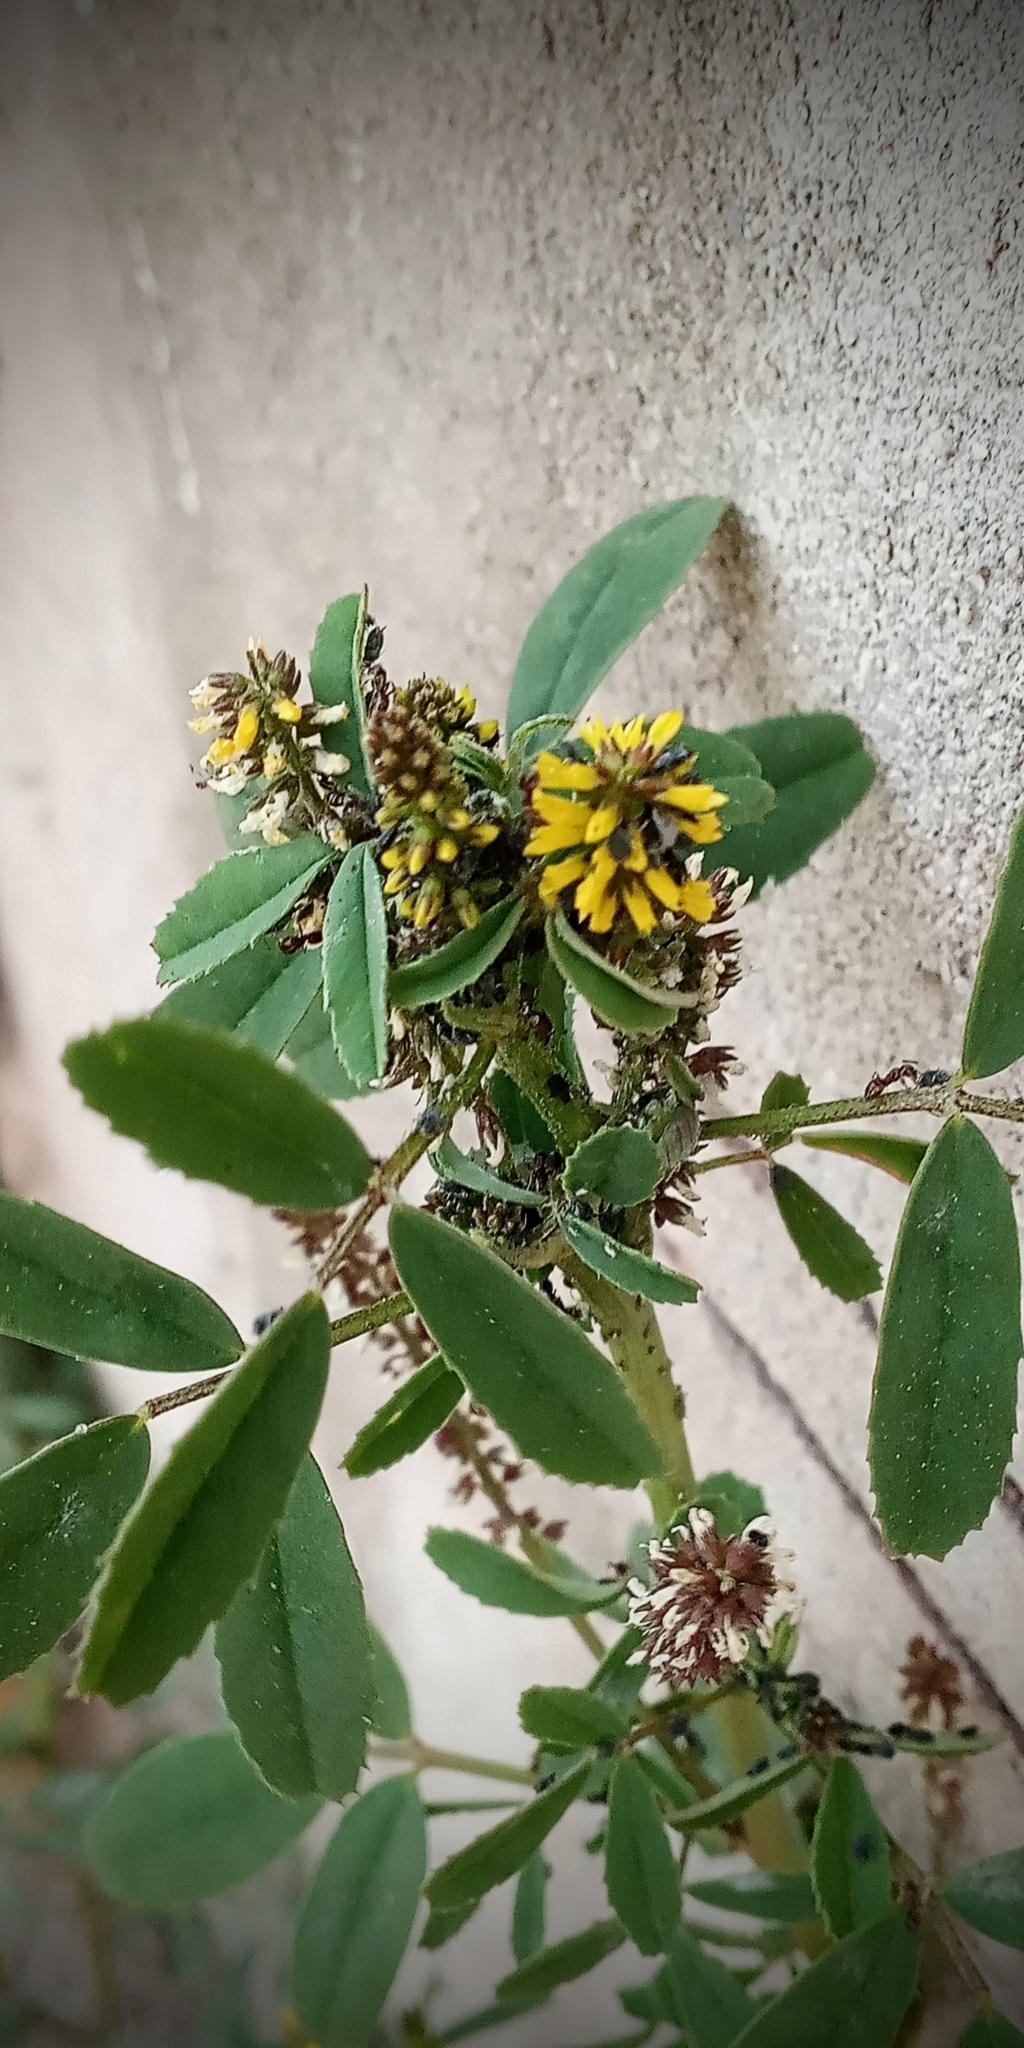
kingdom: Plantae
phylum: Tracheophyta
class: Magnoliopsida
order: Fabales
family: Fabaceae
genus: Melilotus
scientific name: Melilotus indicus
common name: Small melilot
